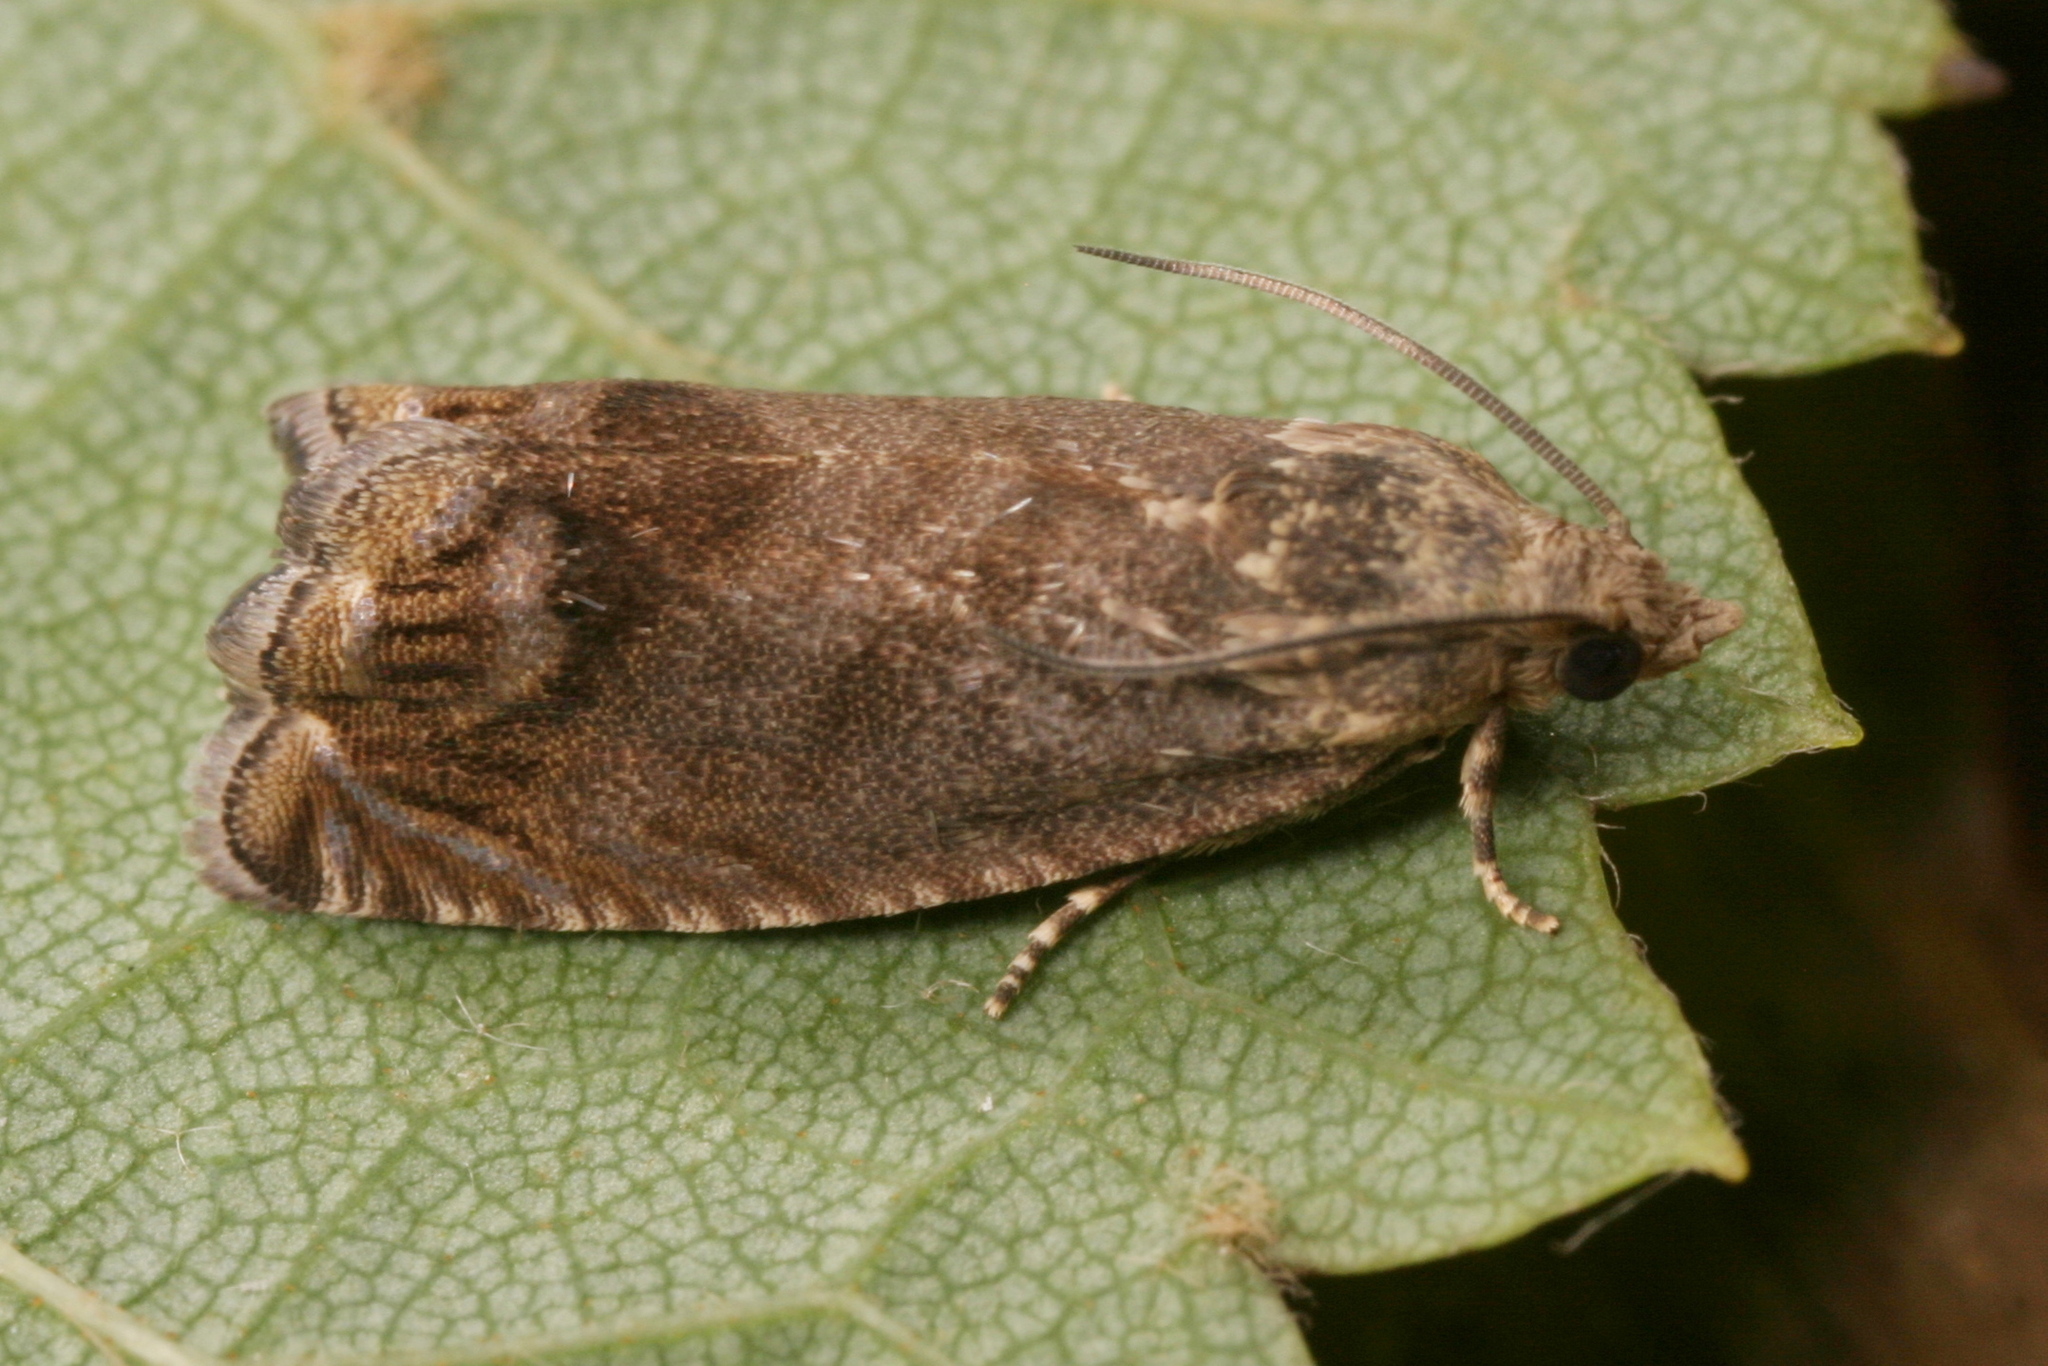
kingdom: Animalia
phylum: Arthropoda
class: Insecta
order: Lepidoptera
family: Tortricidae
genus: Cydia
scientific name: Cydia splendana
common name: De: kastanienwickler, eichenwickler es: oruga de la castaña fr: carpocapse des châtaignes it: cidia o tortrice tardiva delle castagne pt: bichado das castanhas gb: acorn moth, chestnut fruit tortrix
